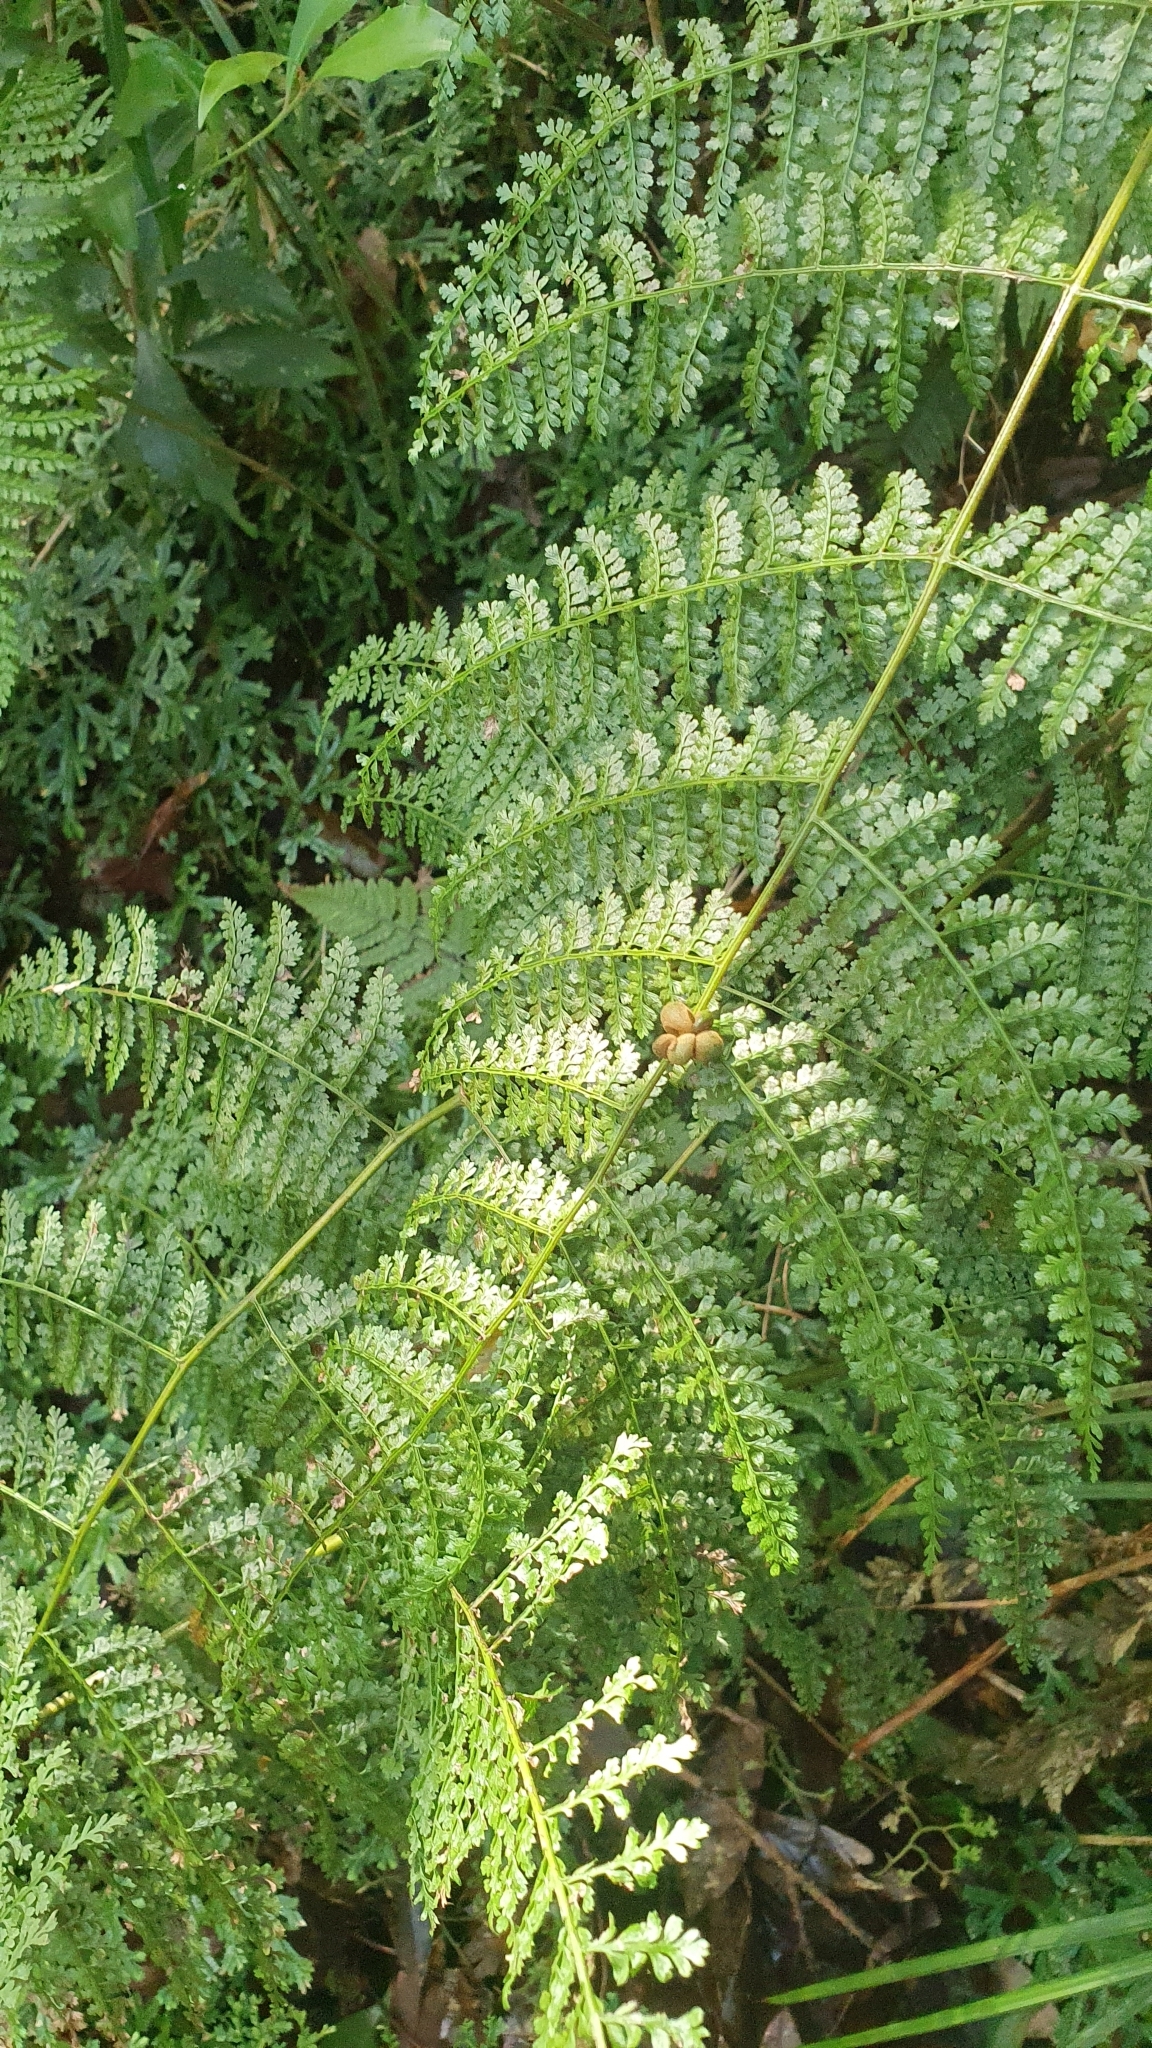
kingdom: Plantae
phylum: Tracheophyta
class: Polypodiopsida
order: Polypodiales
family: Dennstaedtiaceae
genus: Monachosorum
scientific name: Monachosorum henryi
